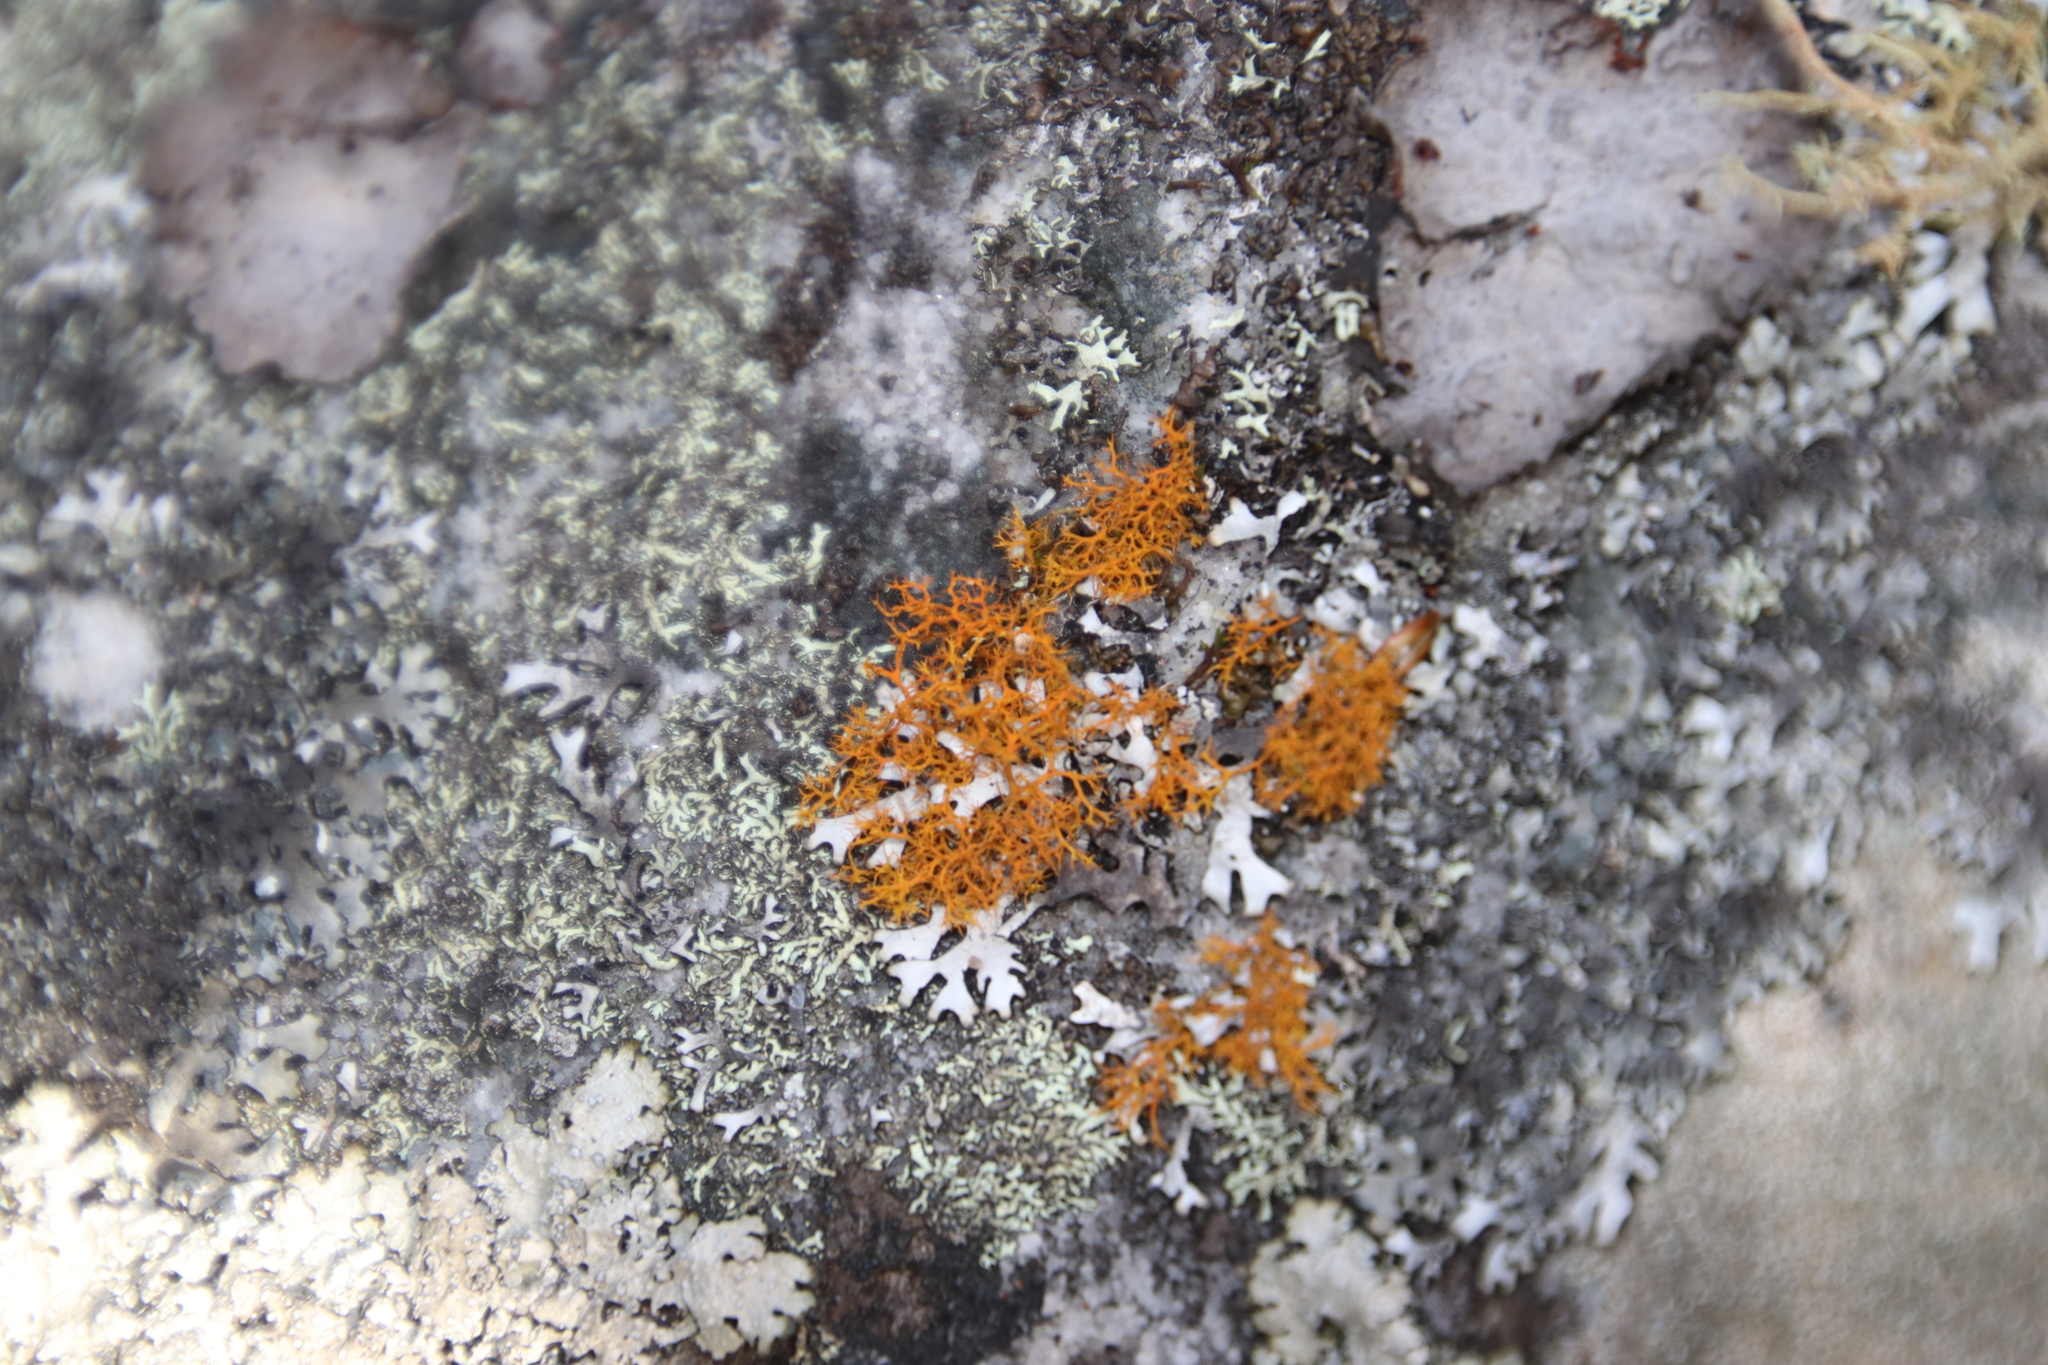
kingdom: Fungi
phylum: Ascomycota
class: Lecanoromycetes
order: Teloschistales
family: Teloschistaceae
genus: Teloschistes
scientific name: Teloschistes flavicans
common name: Golden hair-lichen
